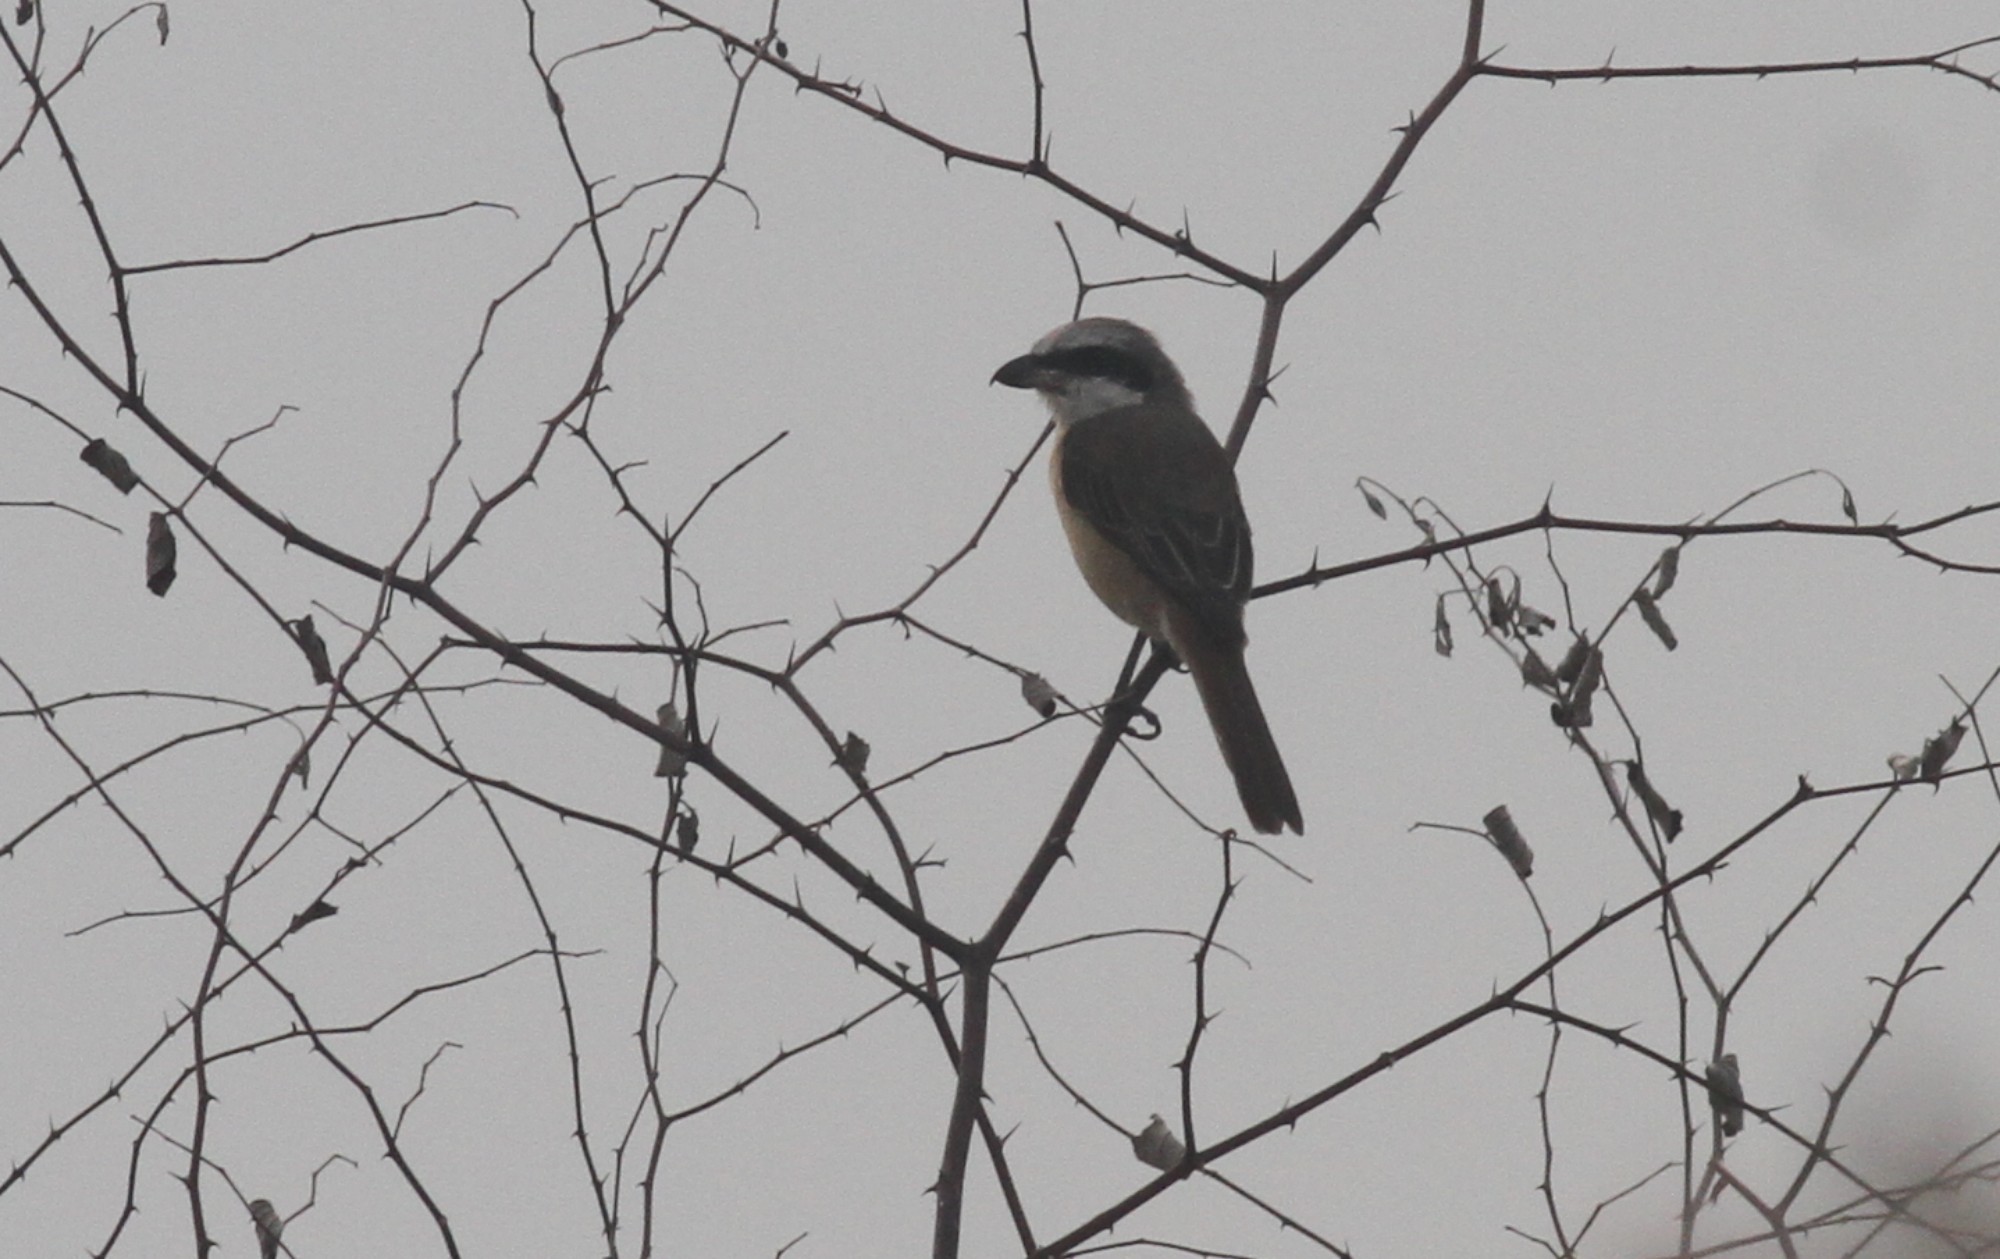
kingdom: Animalia
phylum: Chordata
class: Aves
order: Passeriformes
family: Laniidae
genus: Lanius
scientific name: Lanius cristatus
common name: Brown shrike
